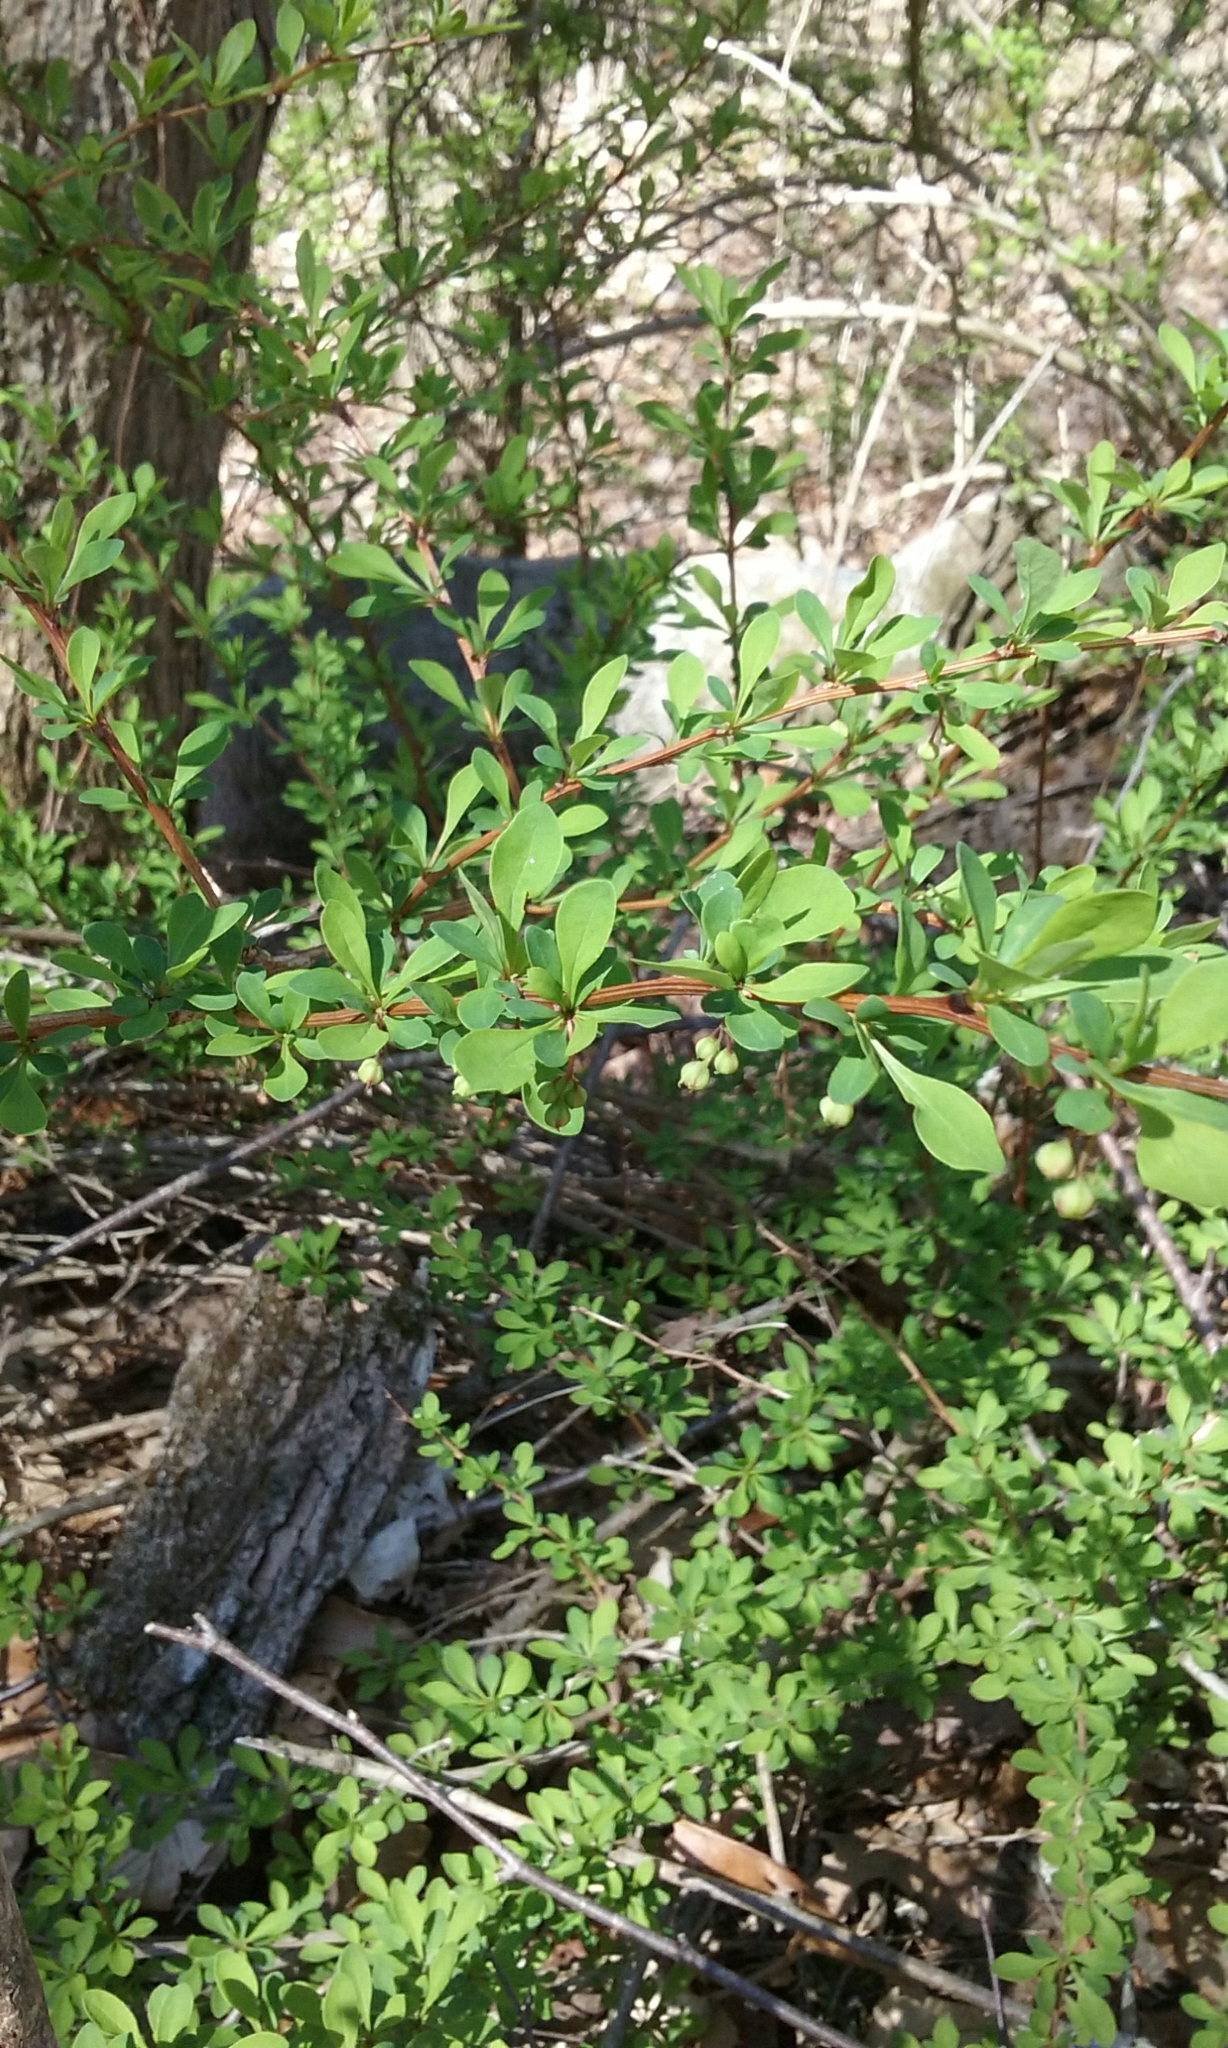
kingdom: Plantae
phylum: Tracheophyta
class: Magnoliopsida
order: Ranunculales
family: Berberidaceae
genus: Berberis
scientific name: Berberis thunbergii
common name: Japanese barberry
